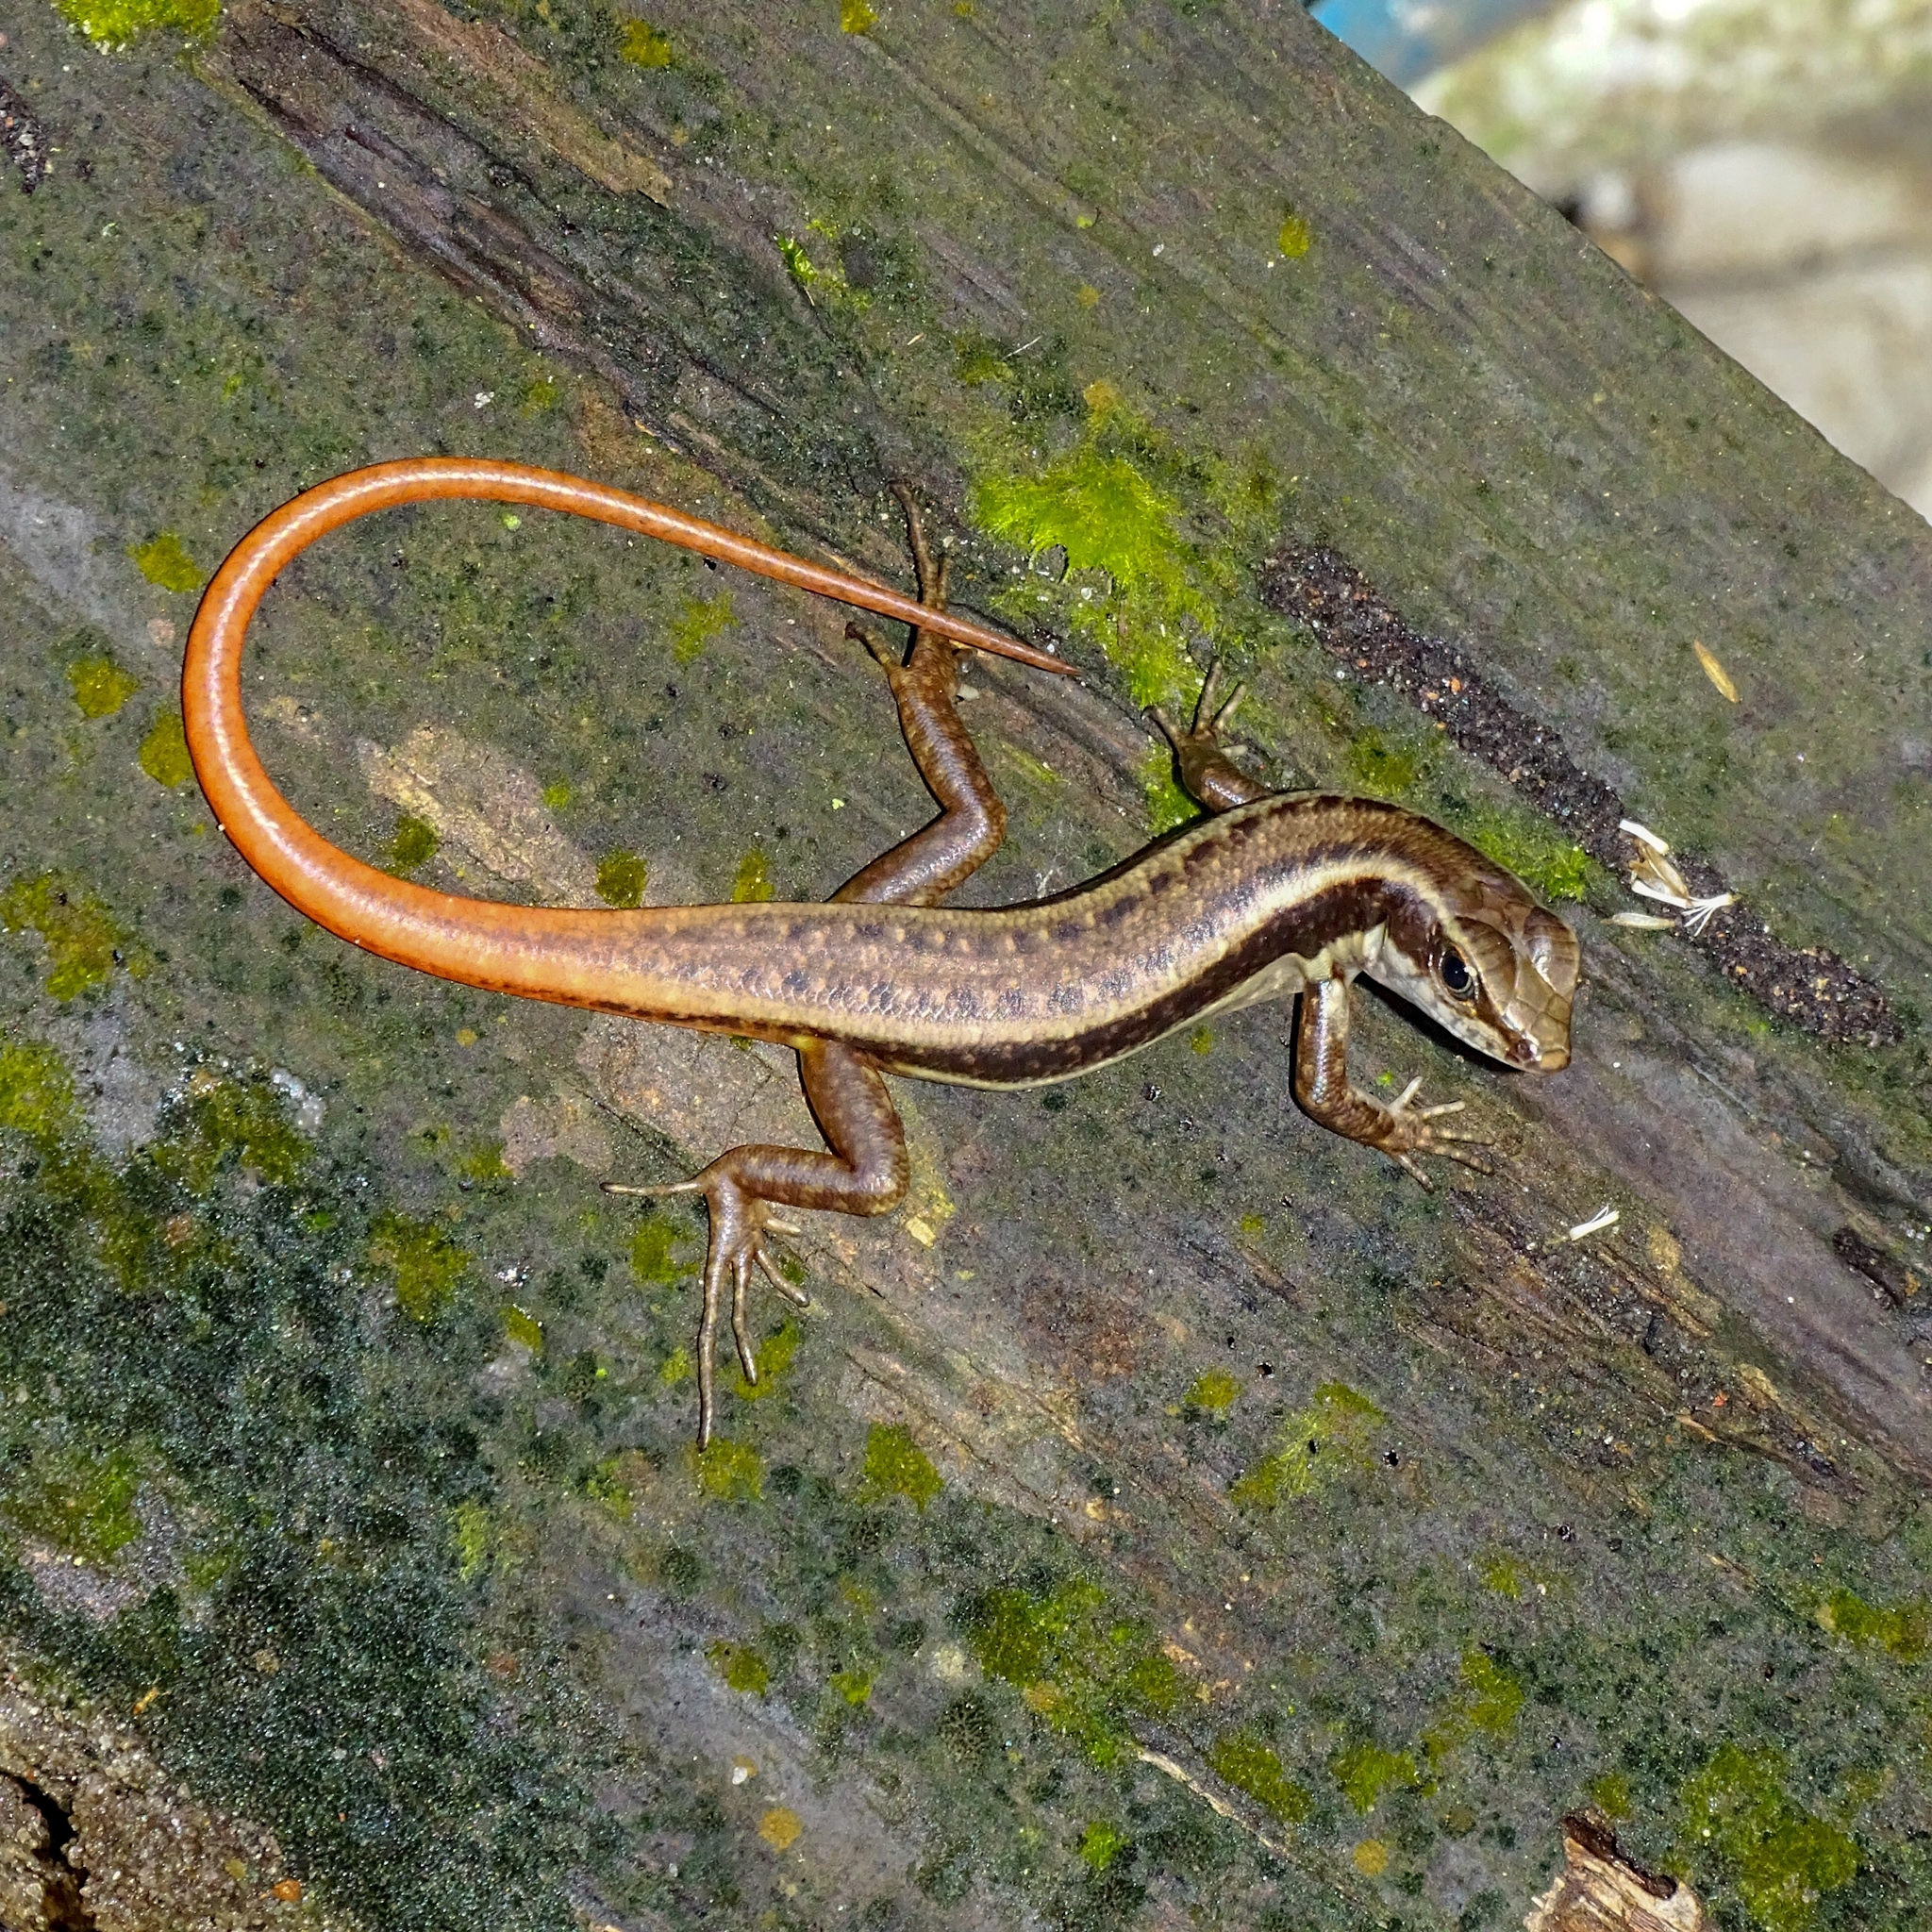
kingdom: Animalia
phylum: Chordata
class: Squamata
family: Scincidae
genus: Sphenomorphus
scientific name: Sphenomorphus dussumieri
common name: Dussumier's forest skink
